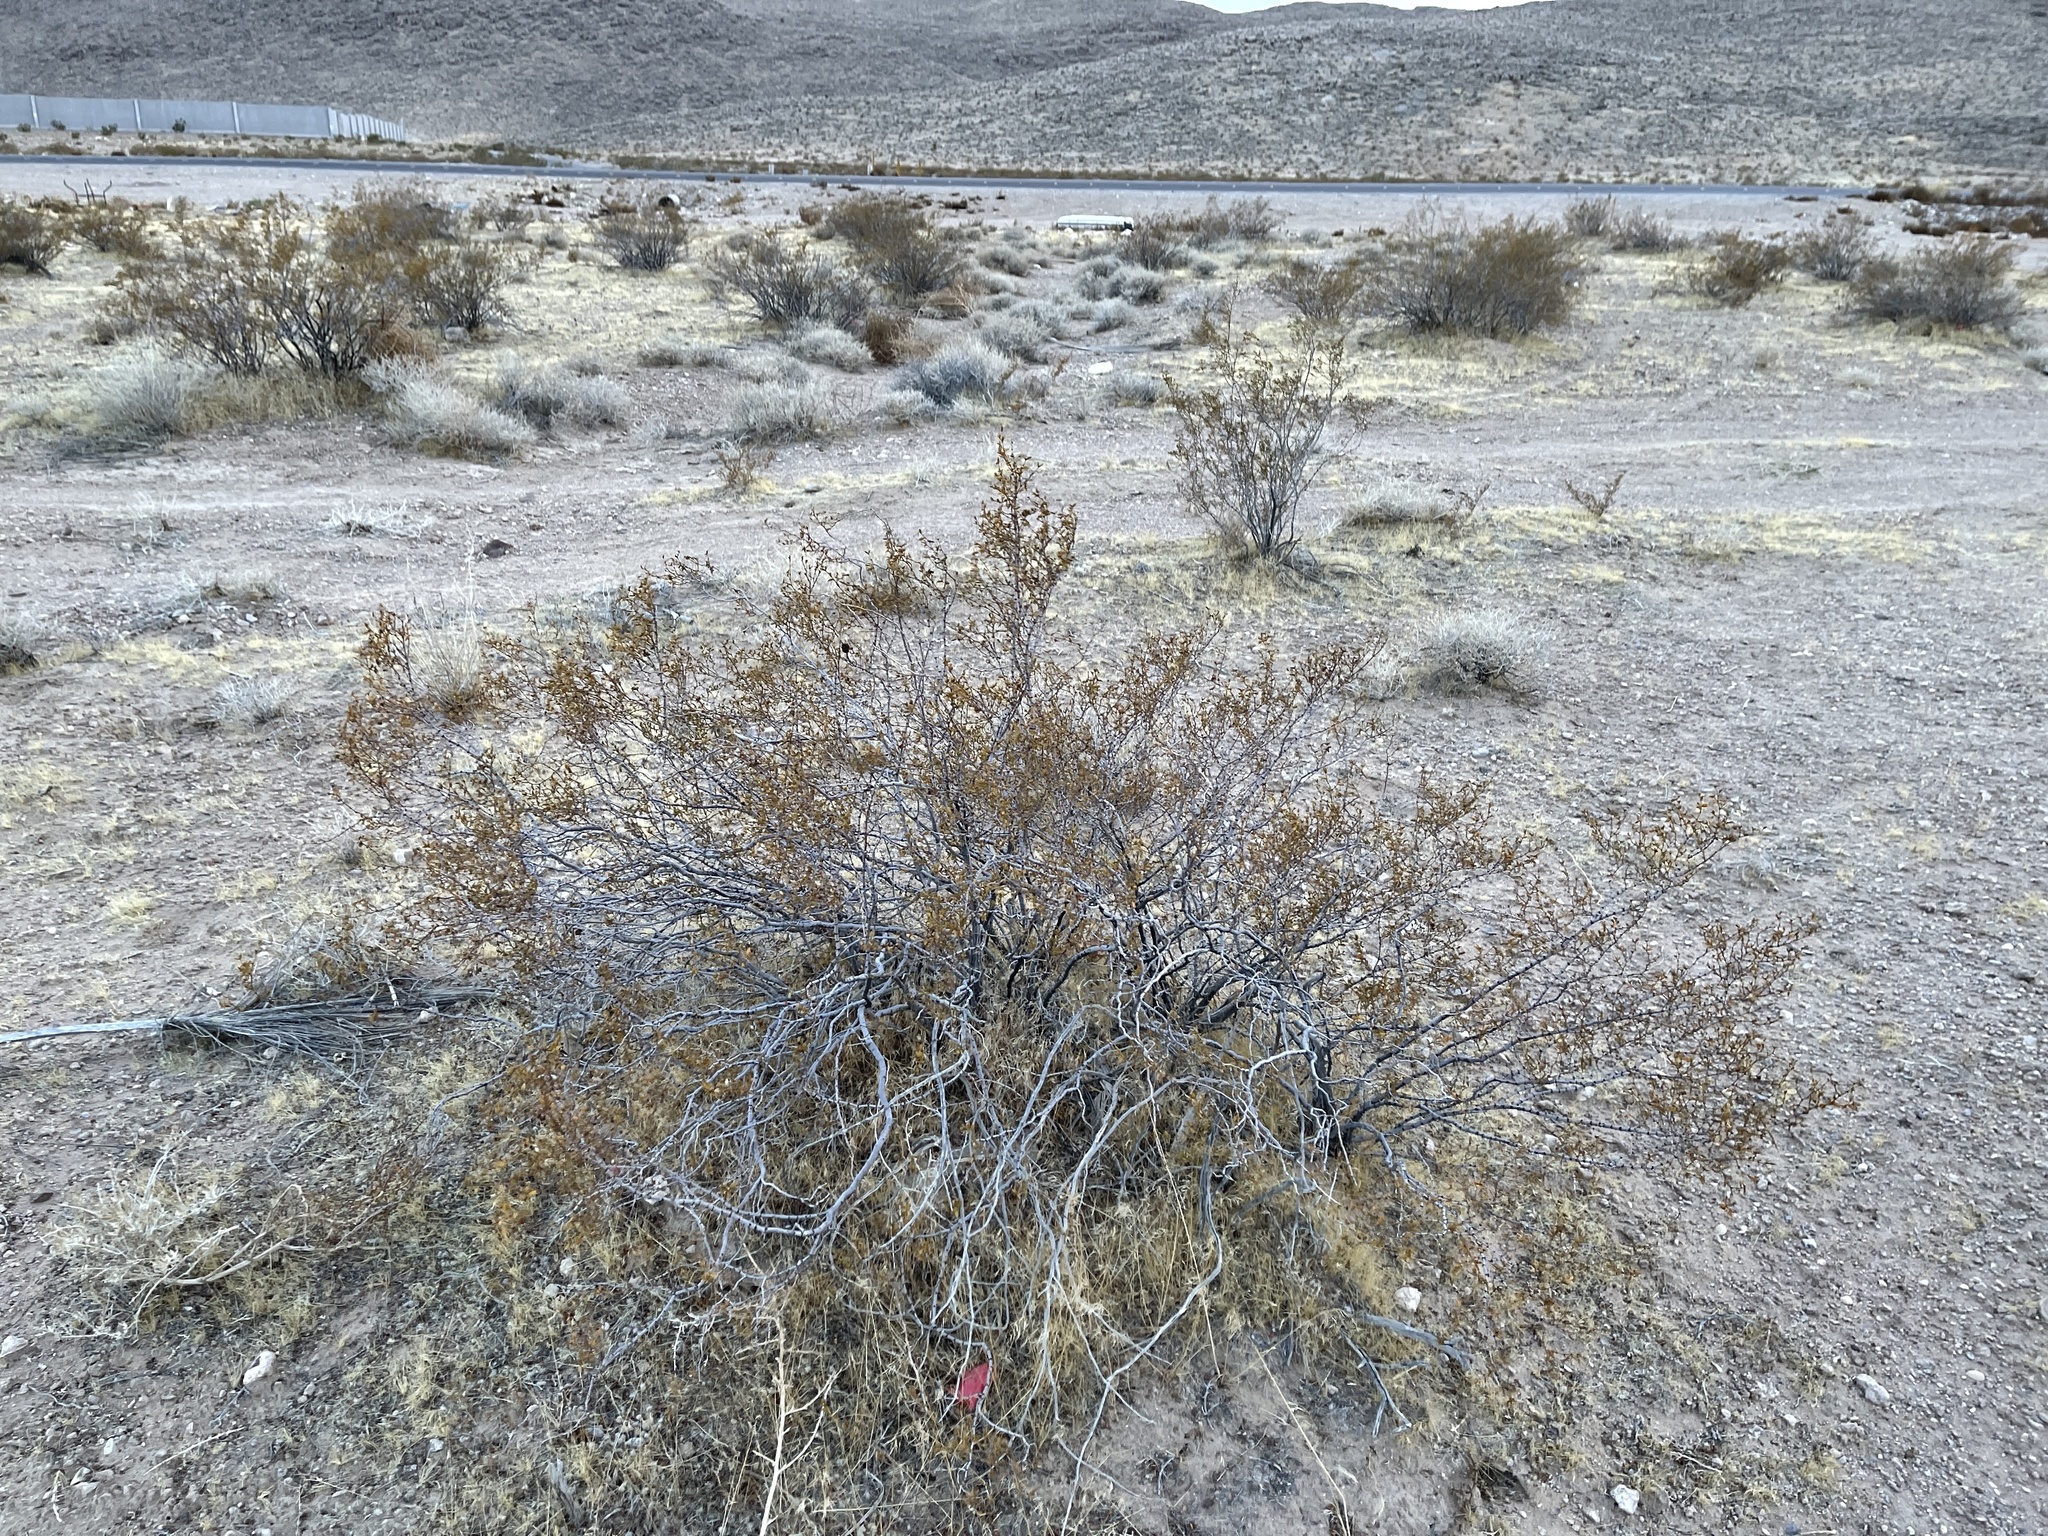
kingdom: Plantae
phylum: Tracheophyta
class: Magnoliopsida
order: Zygophyllales
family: Zygophyllaceae
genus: Larrea
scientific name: Larrea tridentata
